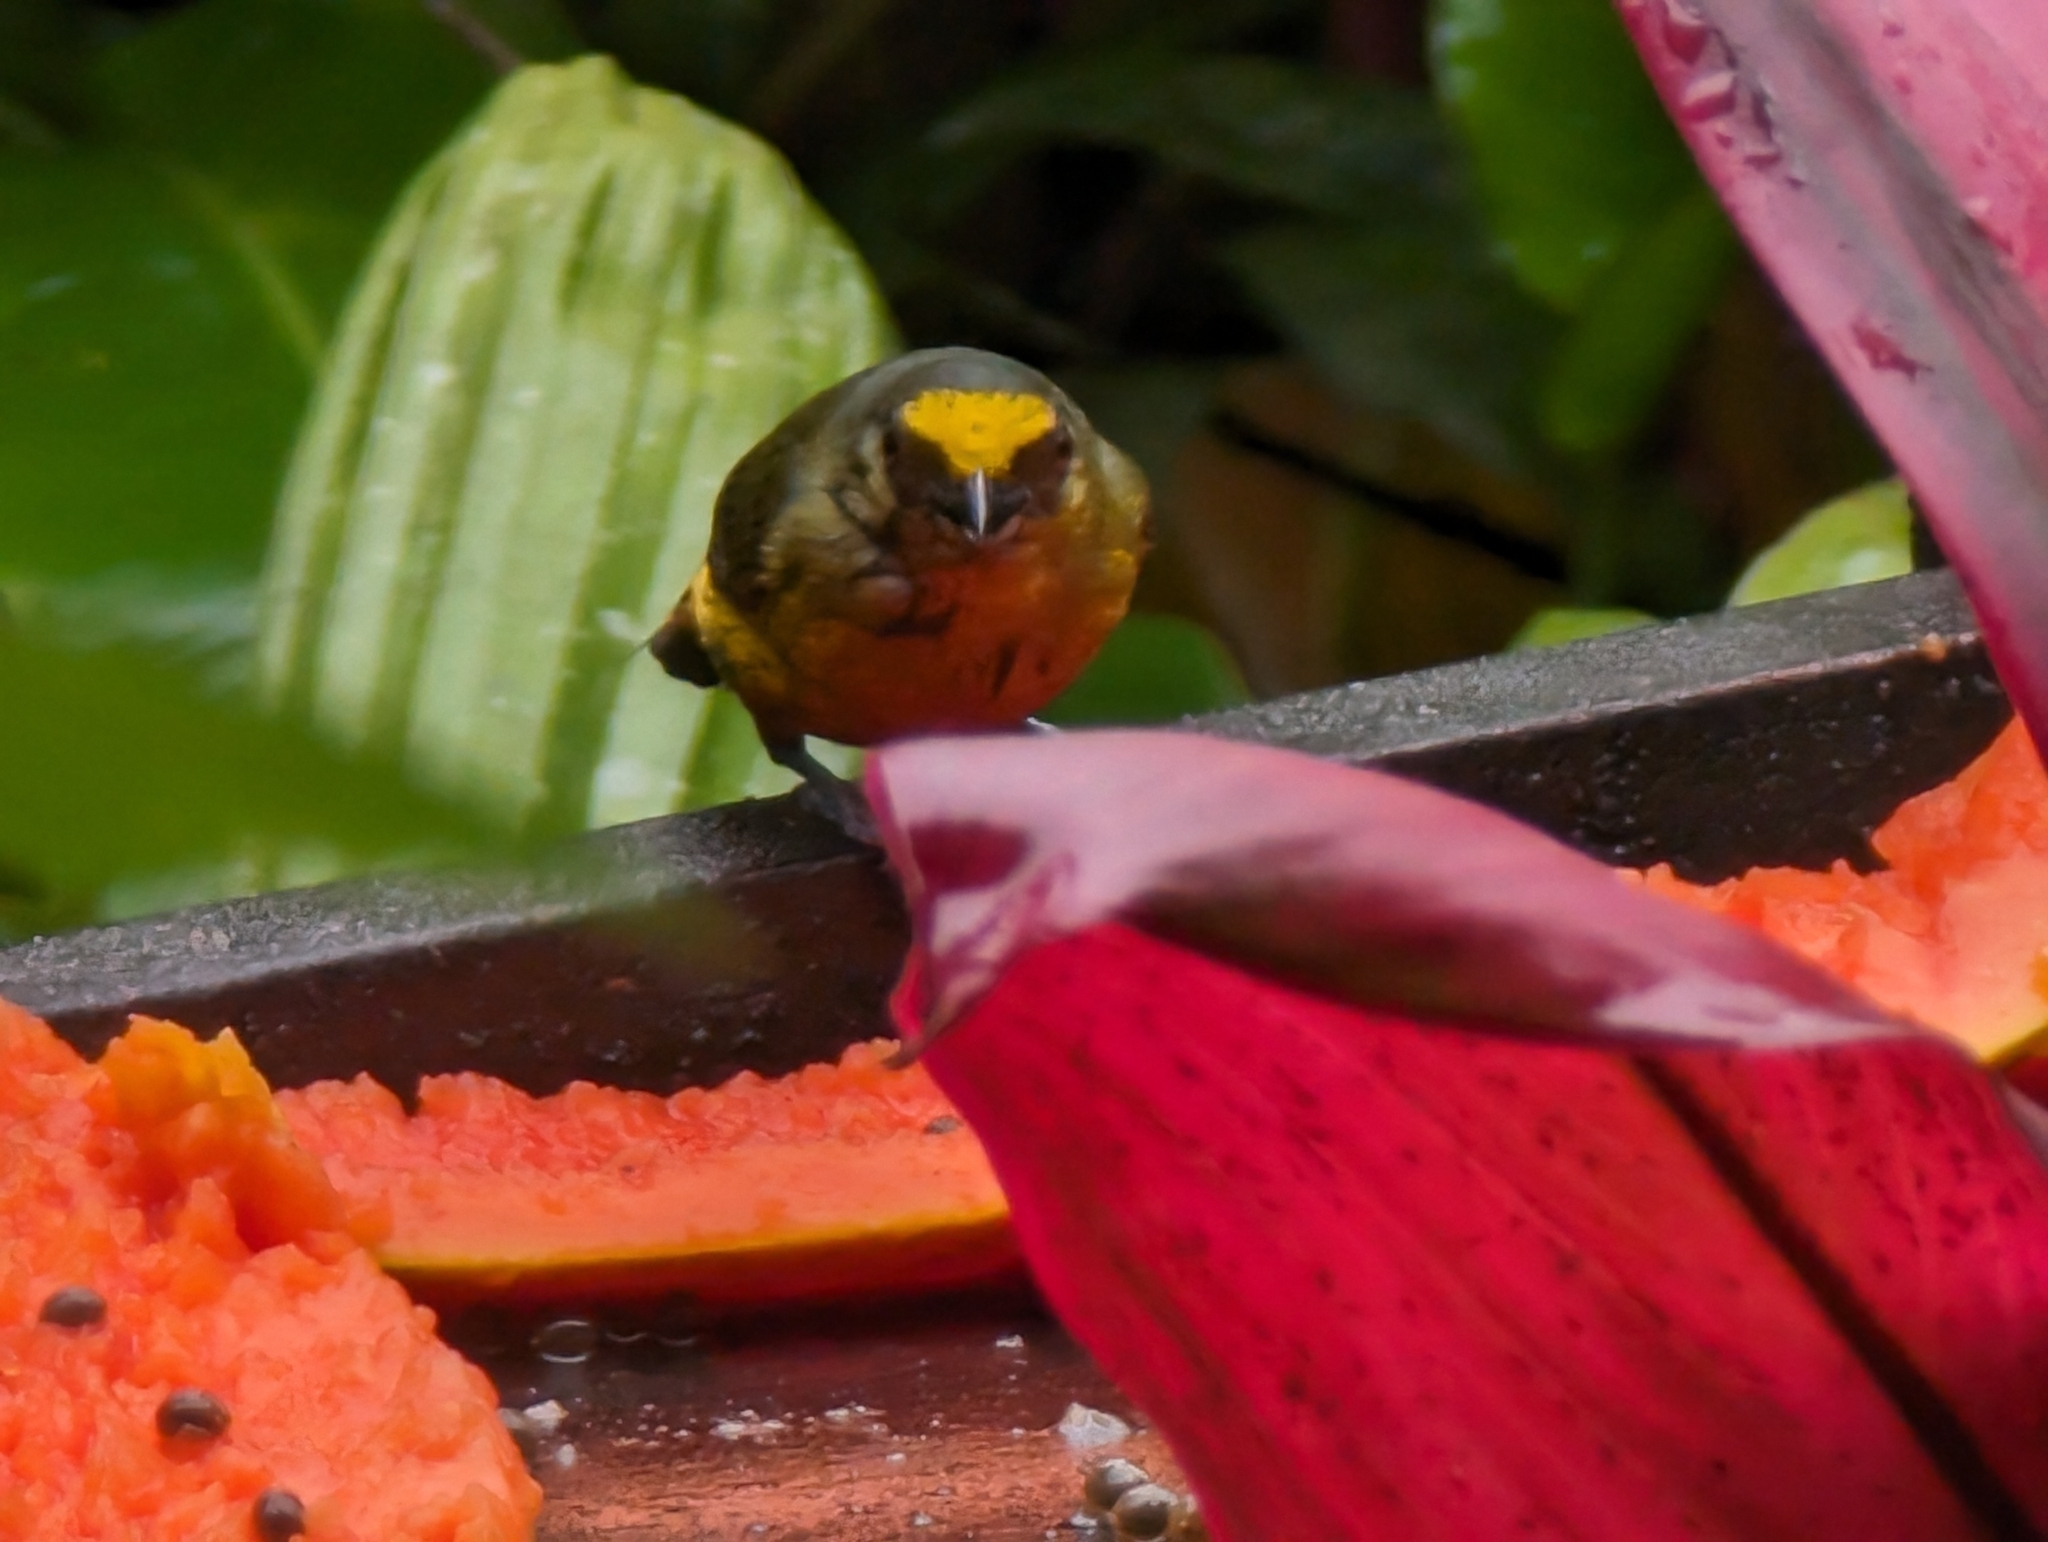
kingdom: Animalia
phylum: Chordata
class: Aves
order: Passeriformes
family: Fringillidae
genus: Euphonia
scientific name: Euphonia gouldi
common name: Olive-backed euphonia
